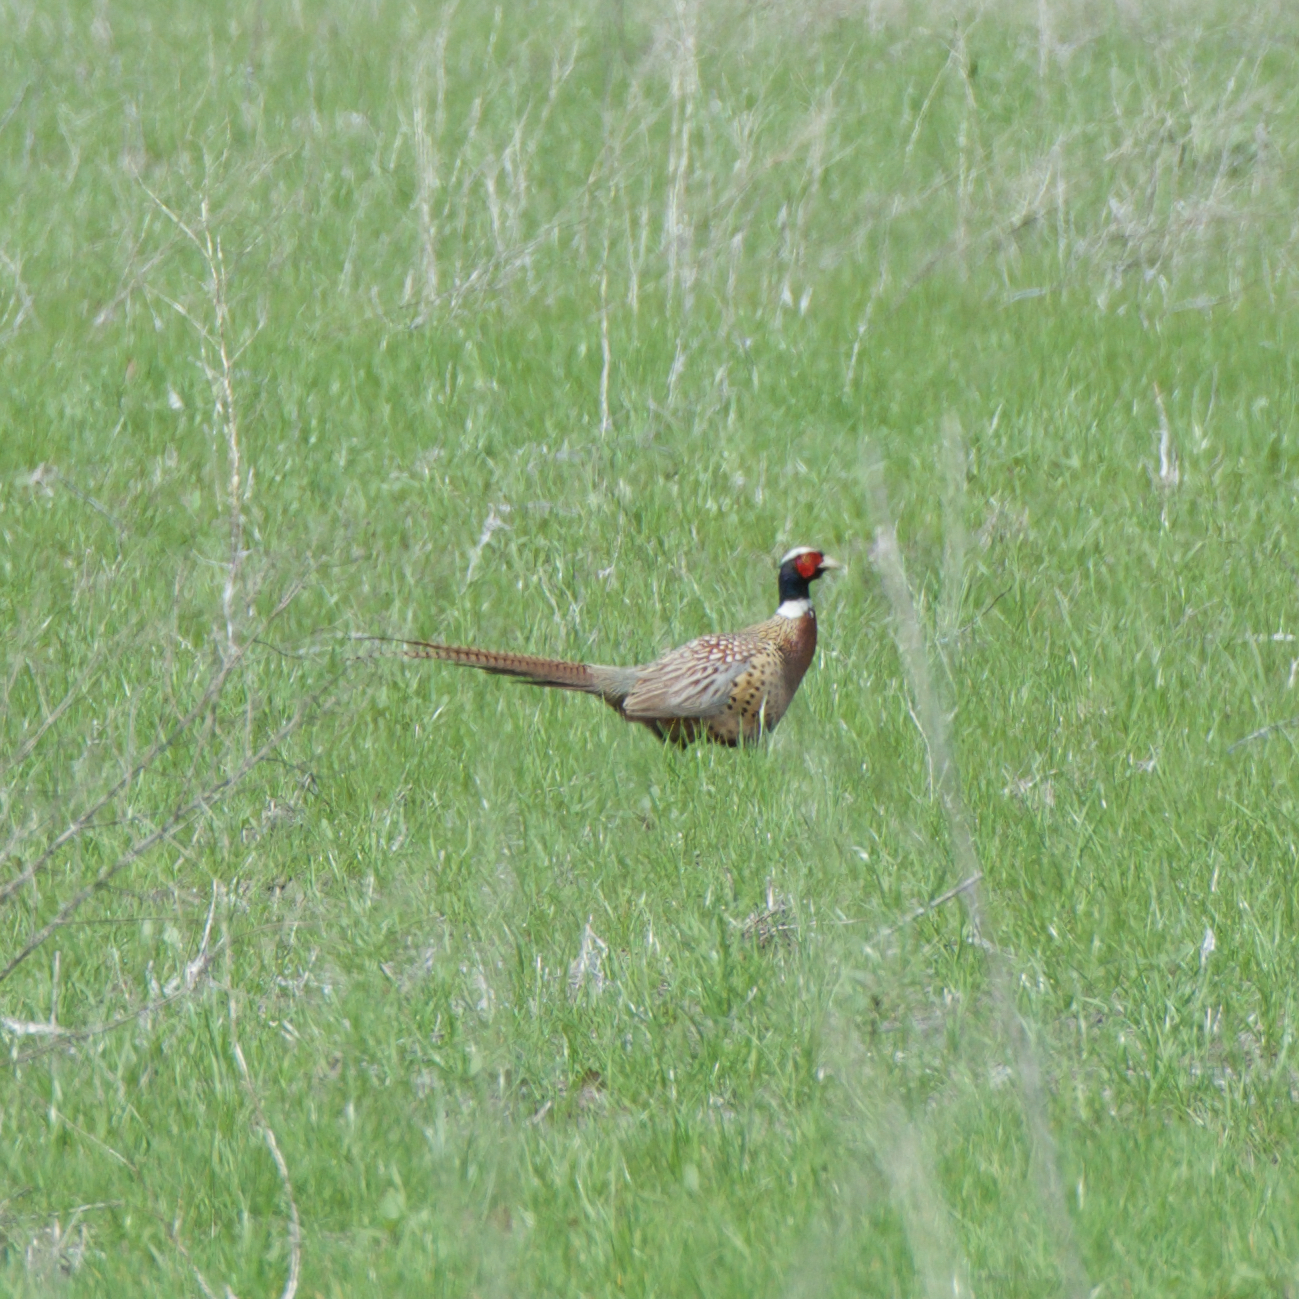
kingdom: Animalia
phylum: Chordata
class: Aves
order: Galliformes
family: Phasianidae
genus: Phasianus
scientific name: Phasianus colchicus
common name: Common pheasant
